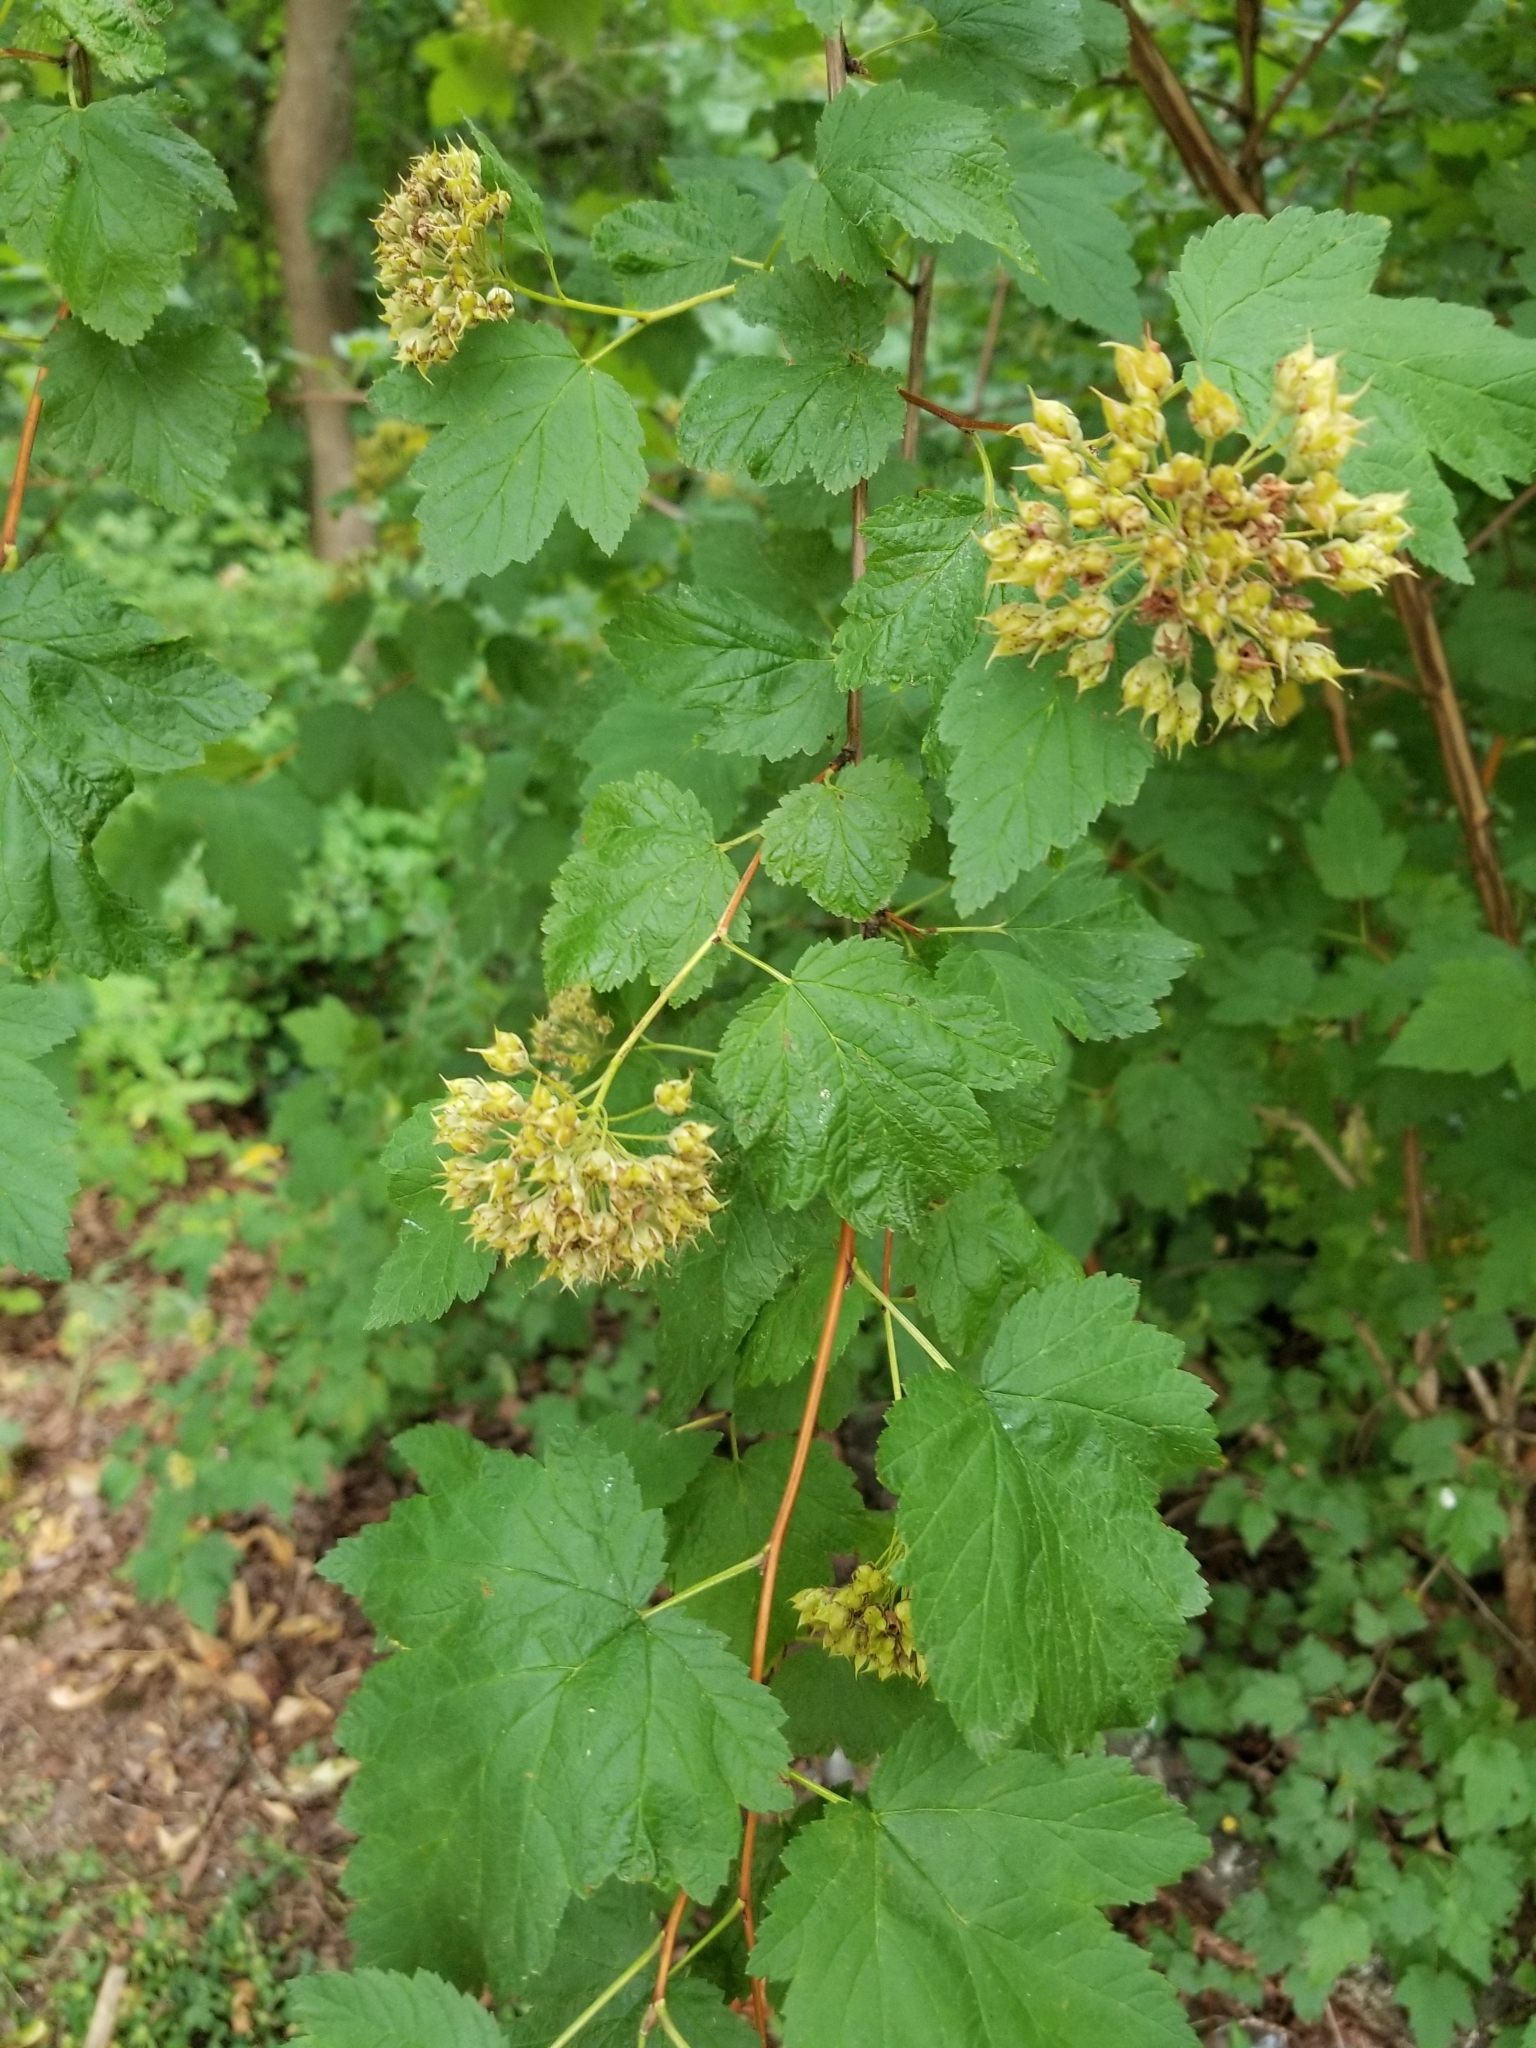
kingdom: Plantae
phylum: Tracheophyta
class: Magnoliopsida
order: Rosales
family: Rosaceae
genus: Physocarpus
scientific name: Physocarpus capitatus
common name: Pacific ninebark
